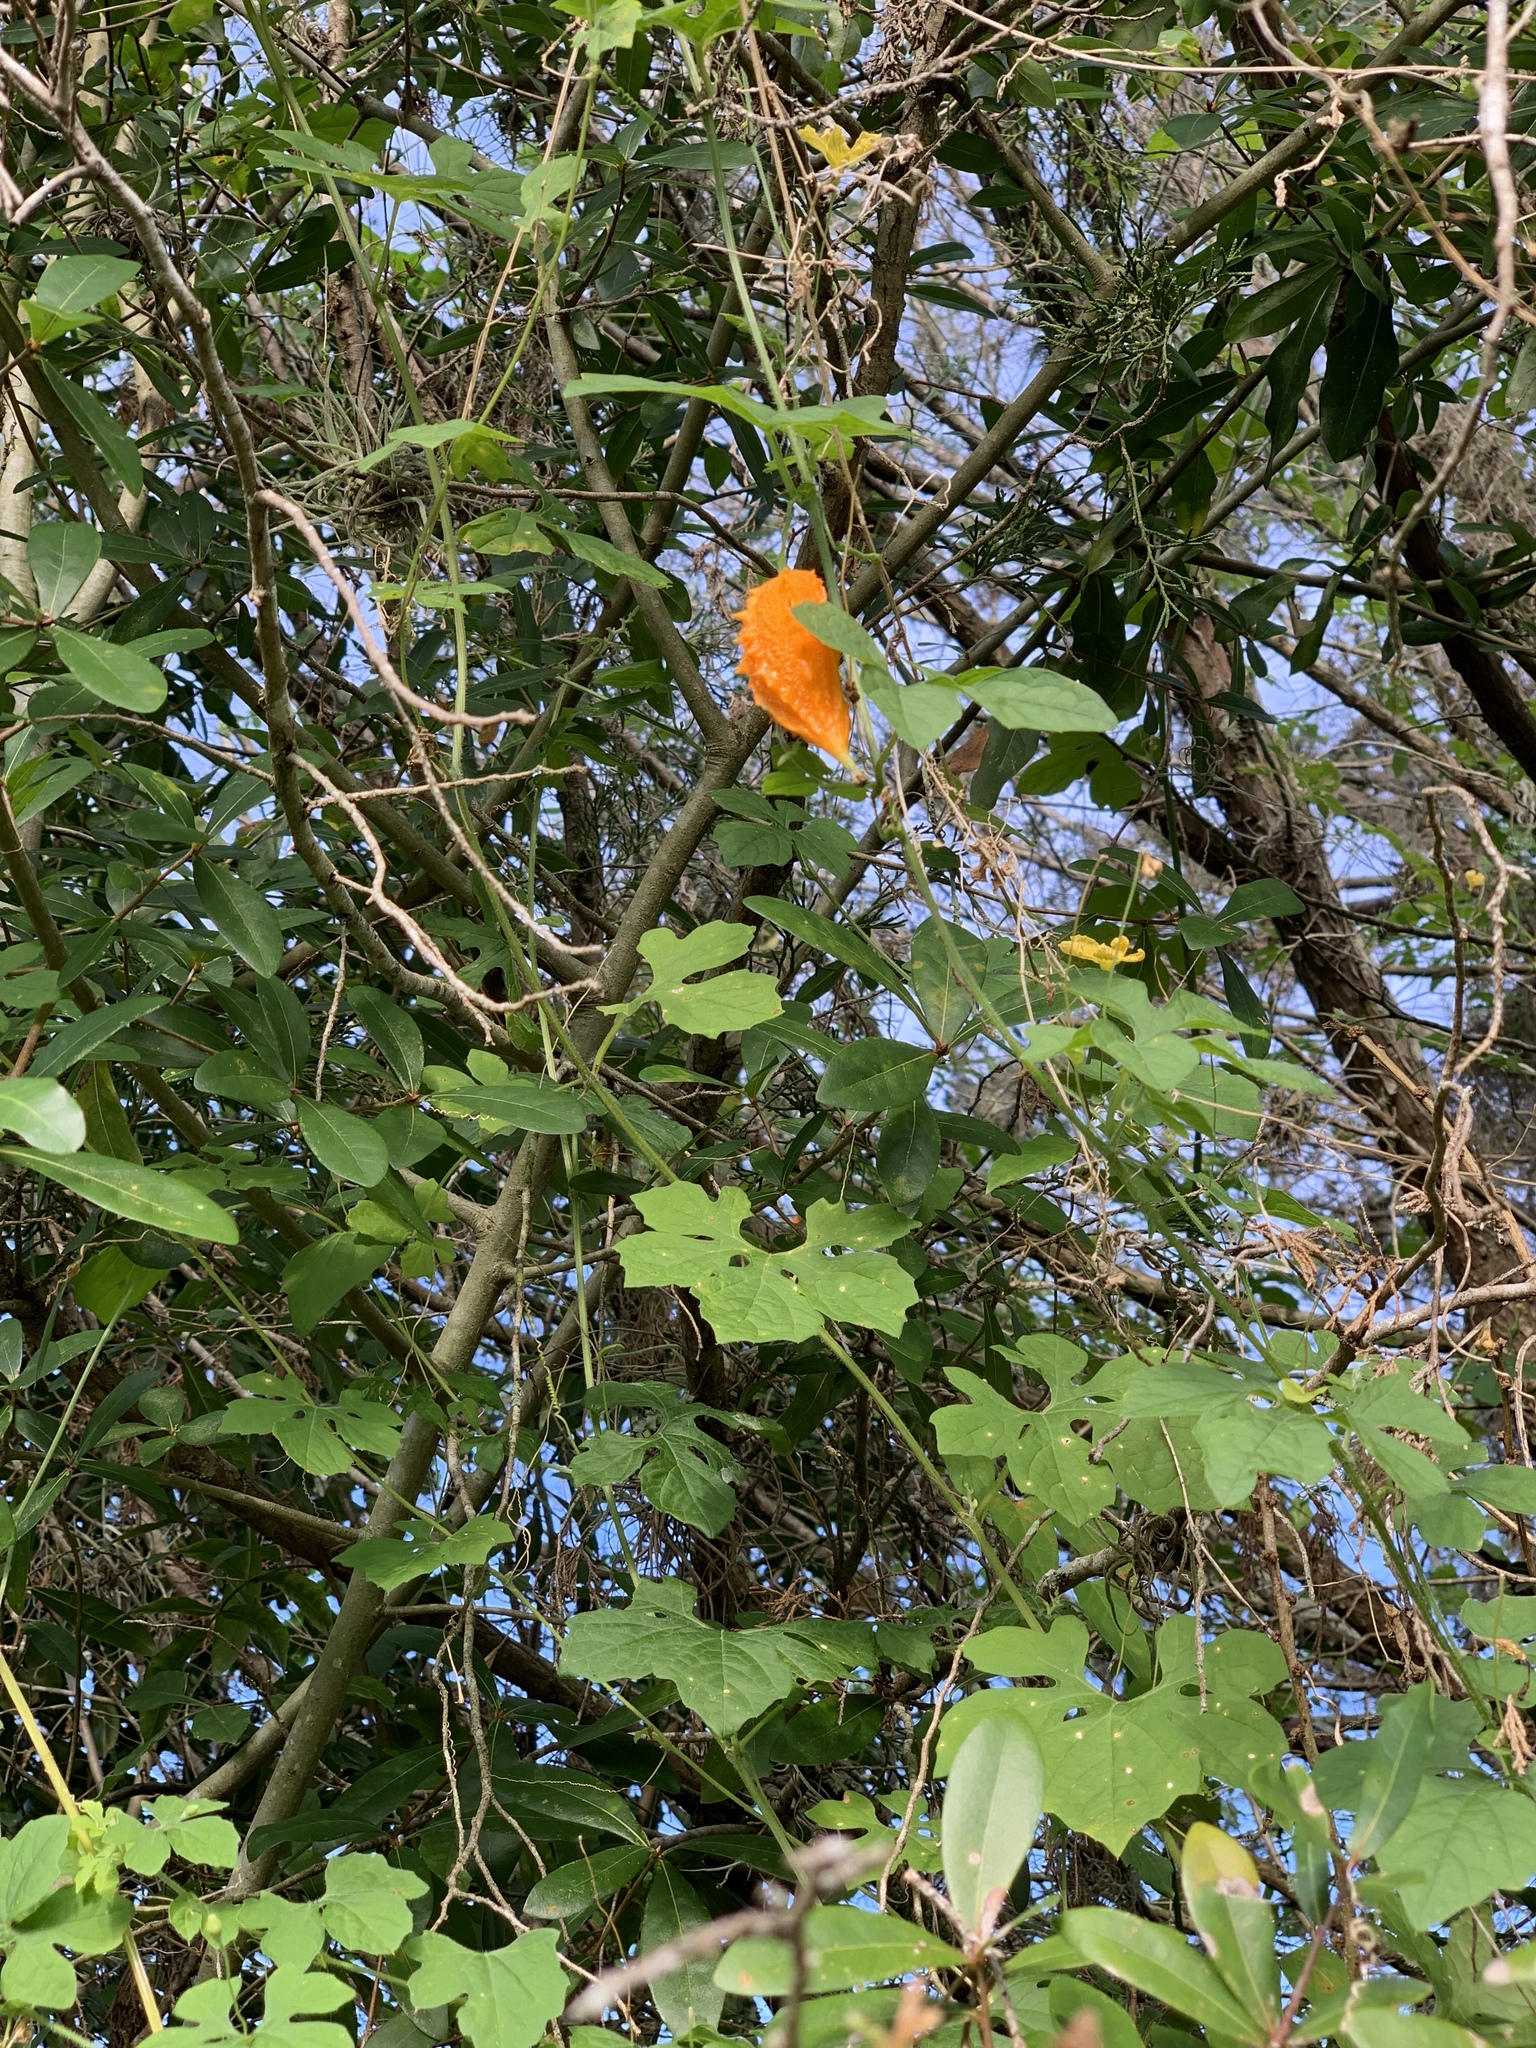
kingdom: Plantae
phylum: Tracheophyta
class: Magnoliopsida
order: Cucurbitales
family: Cucurbitaceae
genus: Momordica
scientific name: Momordica charantia
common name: Balsampear
